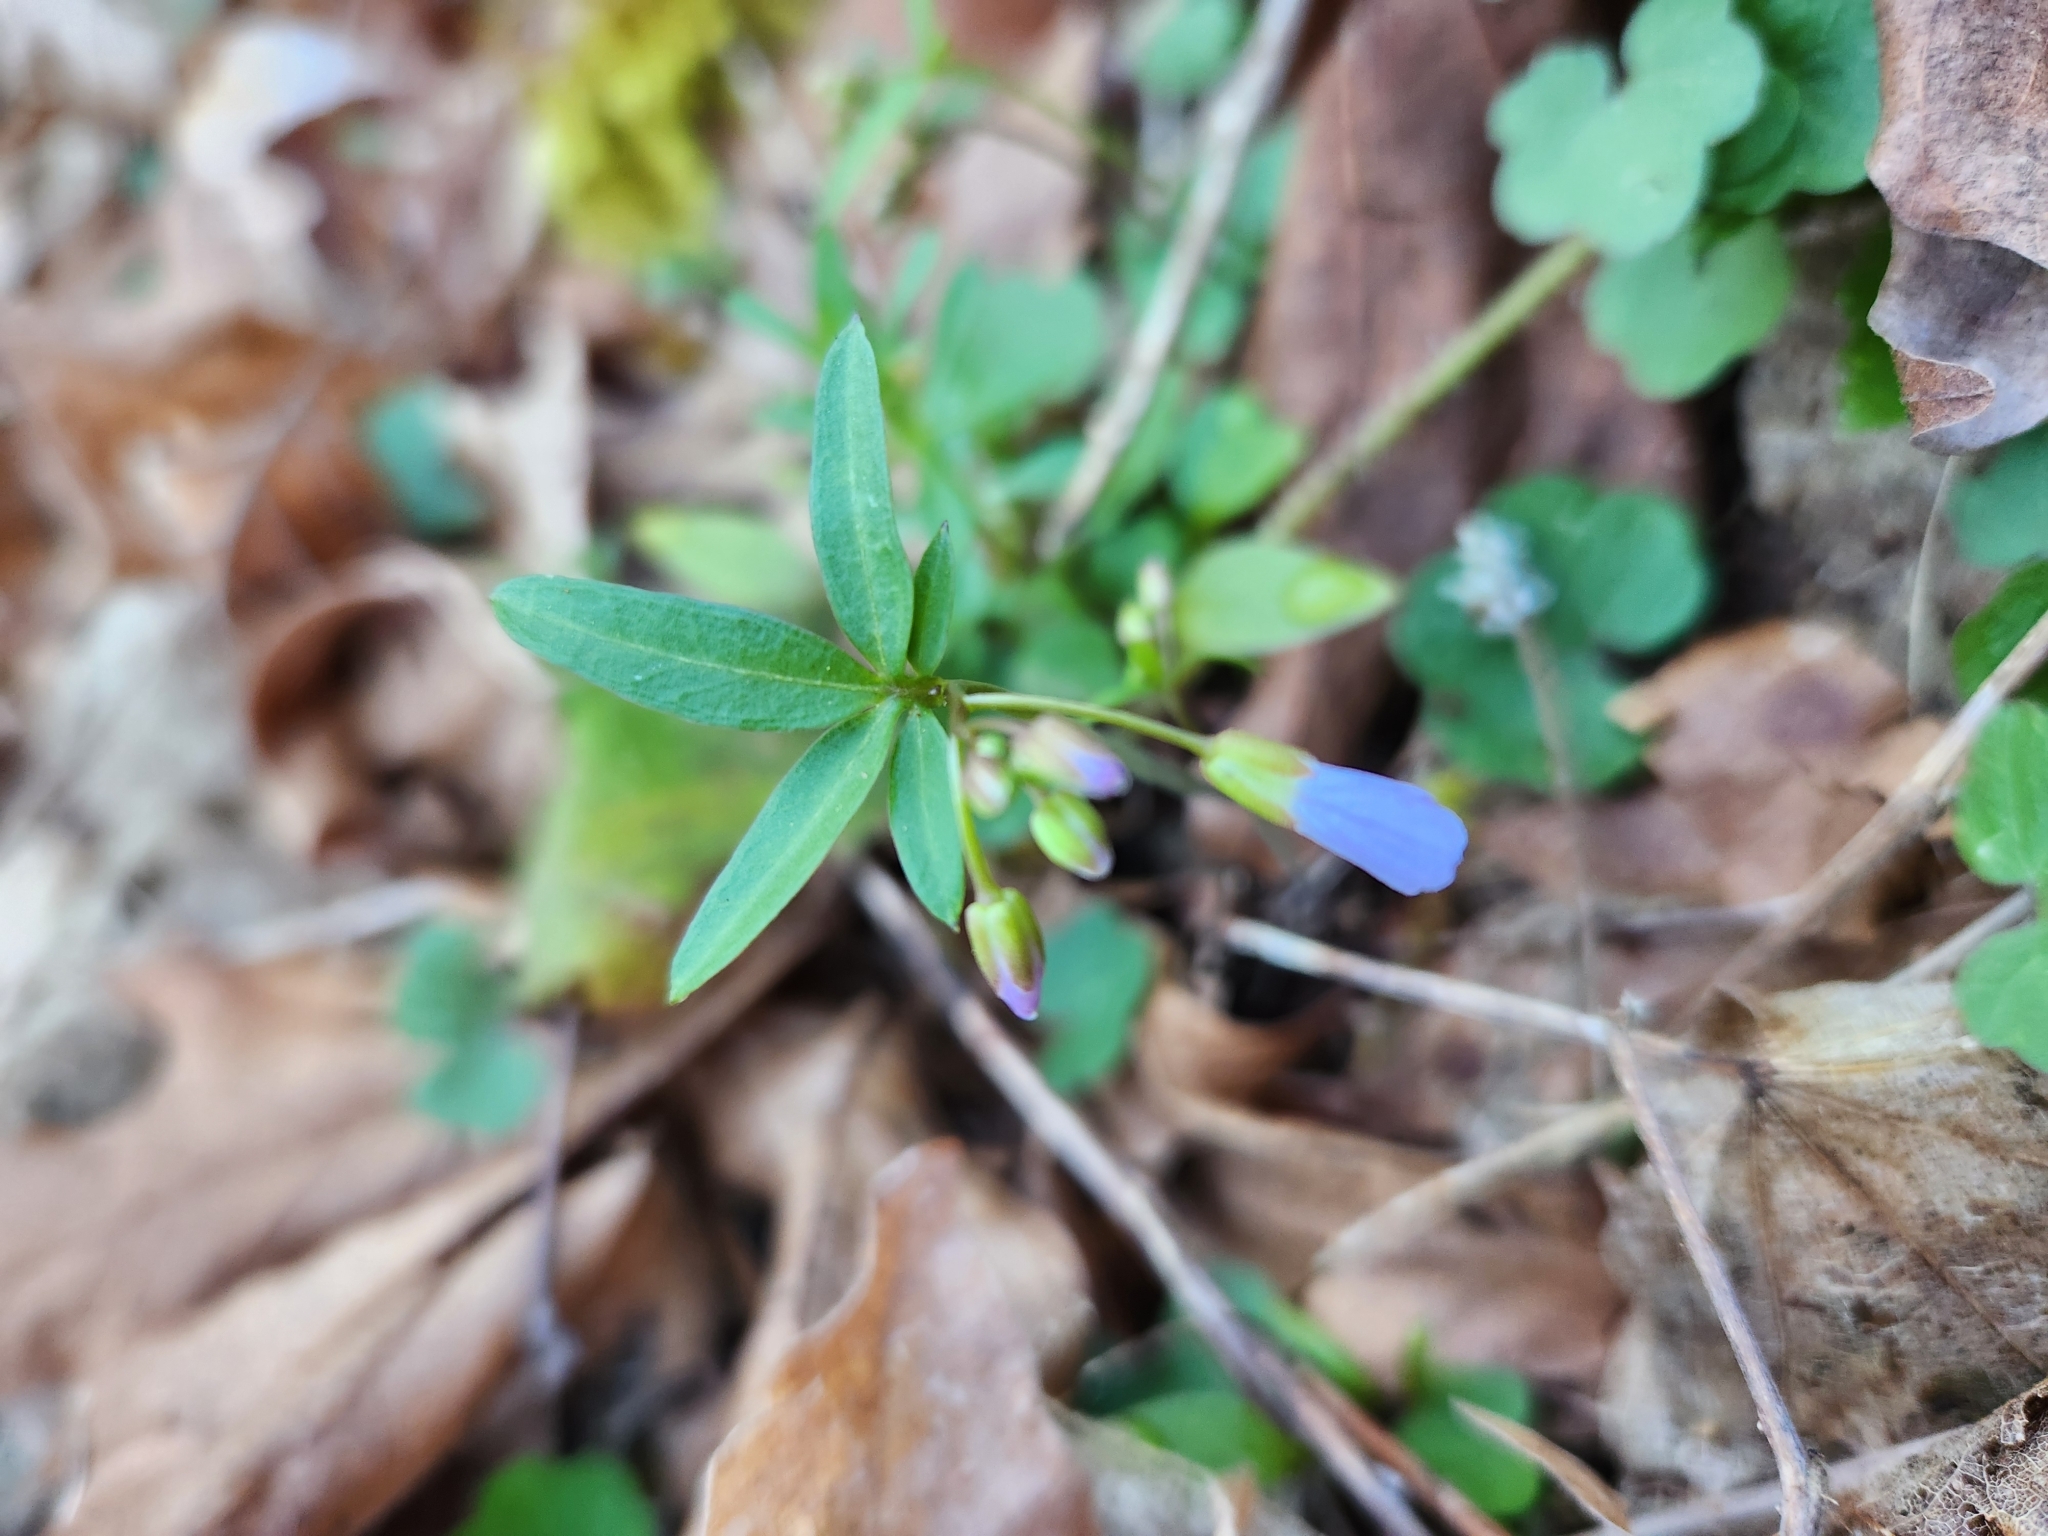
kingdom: Plantae
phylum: Tracheophyta
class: Magnoliopsida
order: Brassicales
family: Brassicaceae
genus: Cardamine
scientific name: Cardamine nuttallii
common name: Nuttall's toothwort
